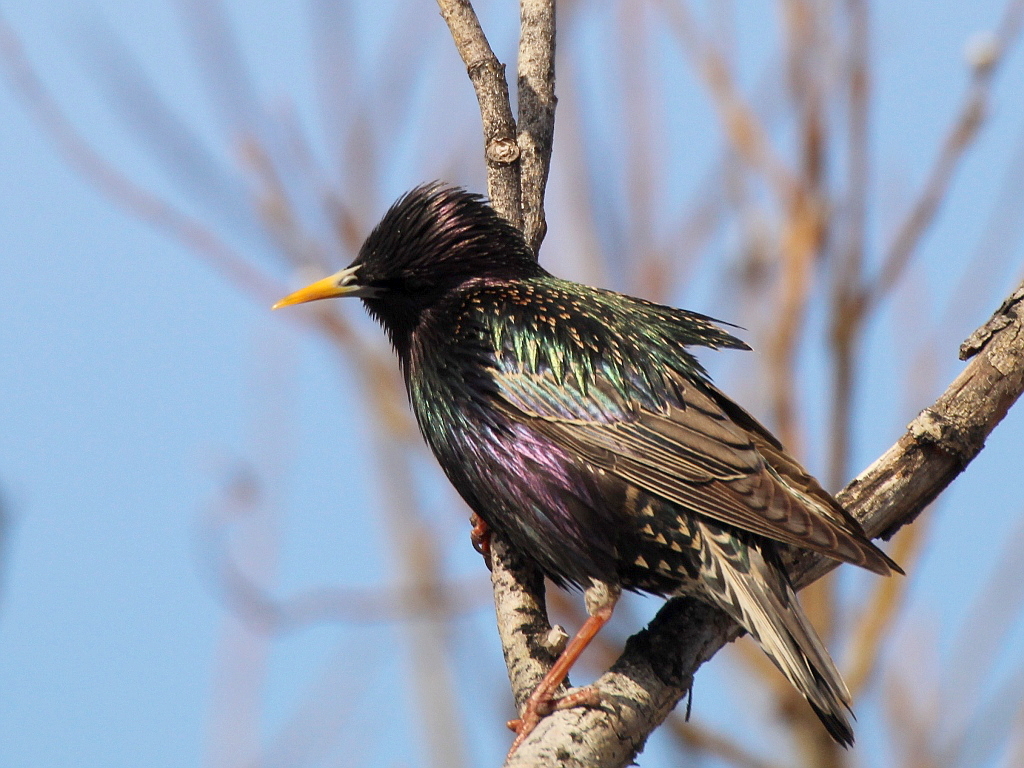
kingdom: Animalia
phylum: Chordata
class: Aves
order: Passeriformes
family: Sturnidae
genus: Sturnus
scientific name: Sturnus vulgaris
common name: Common starling
